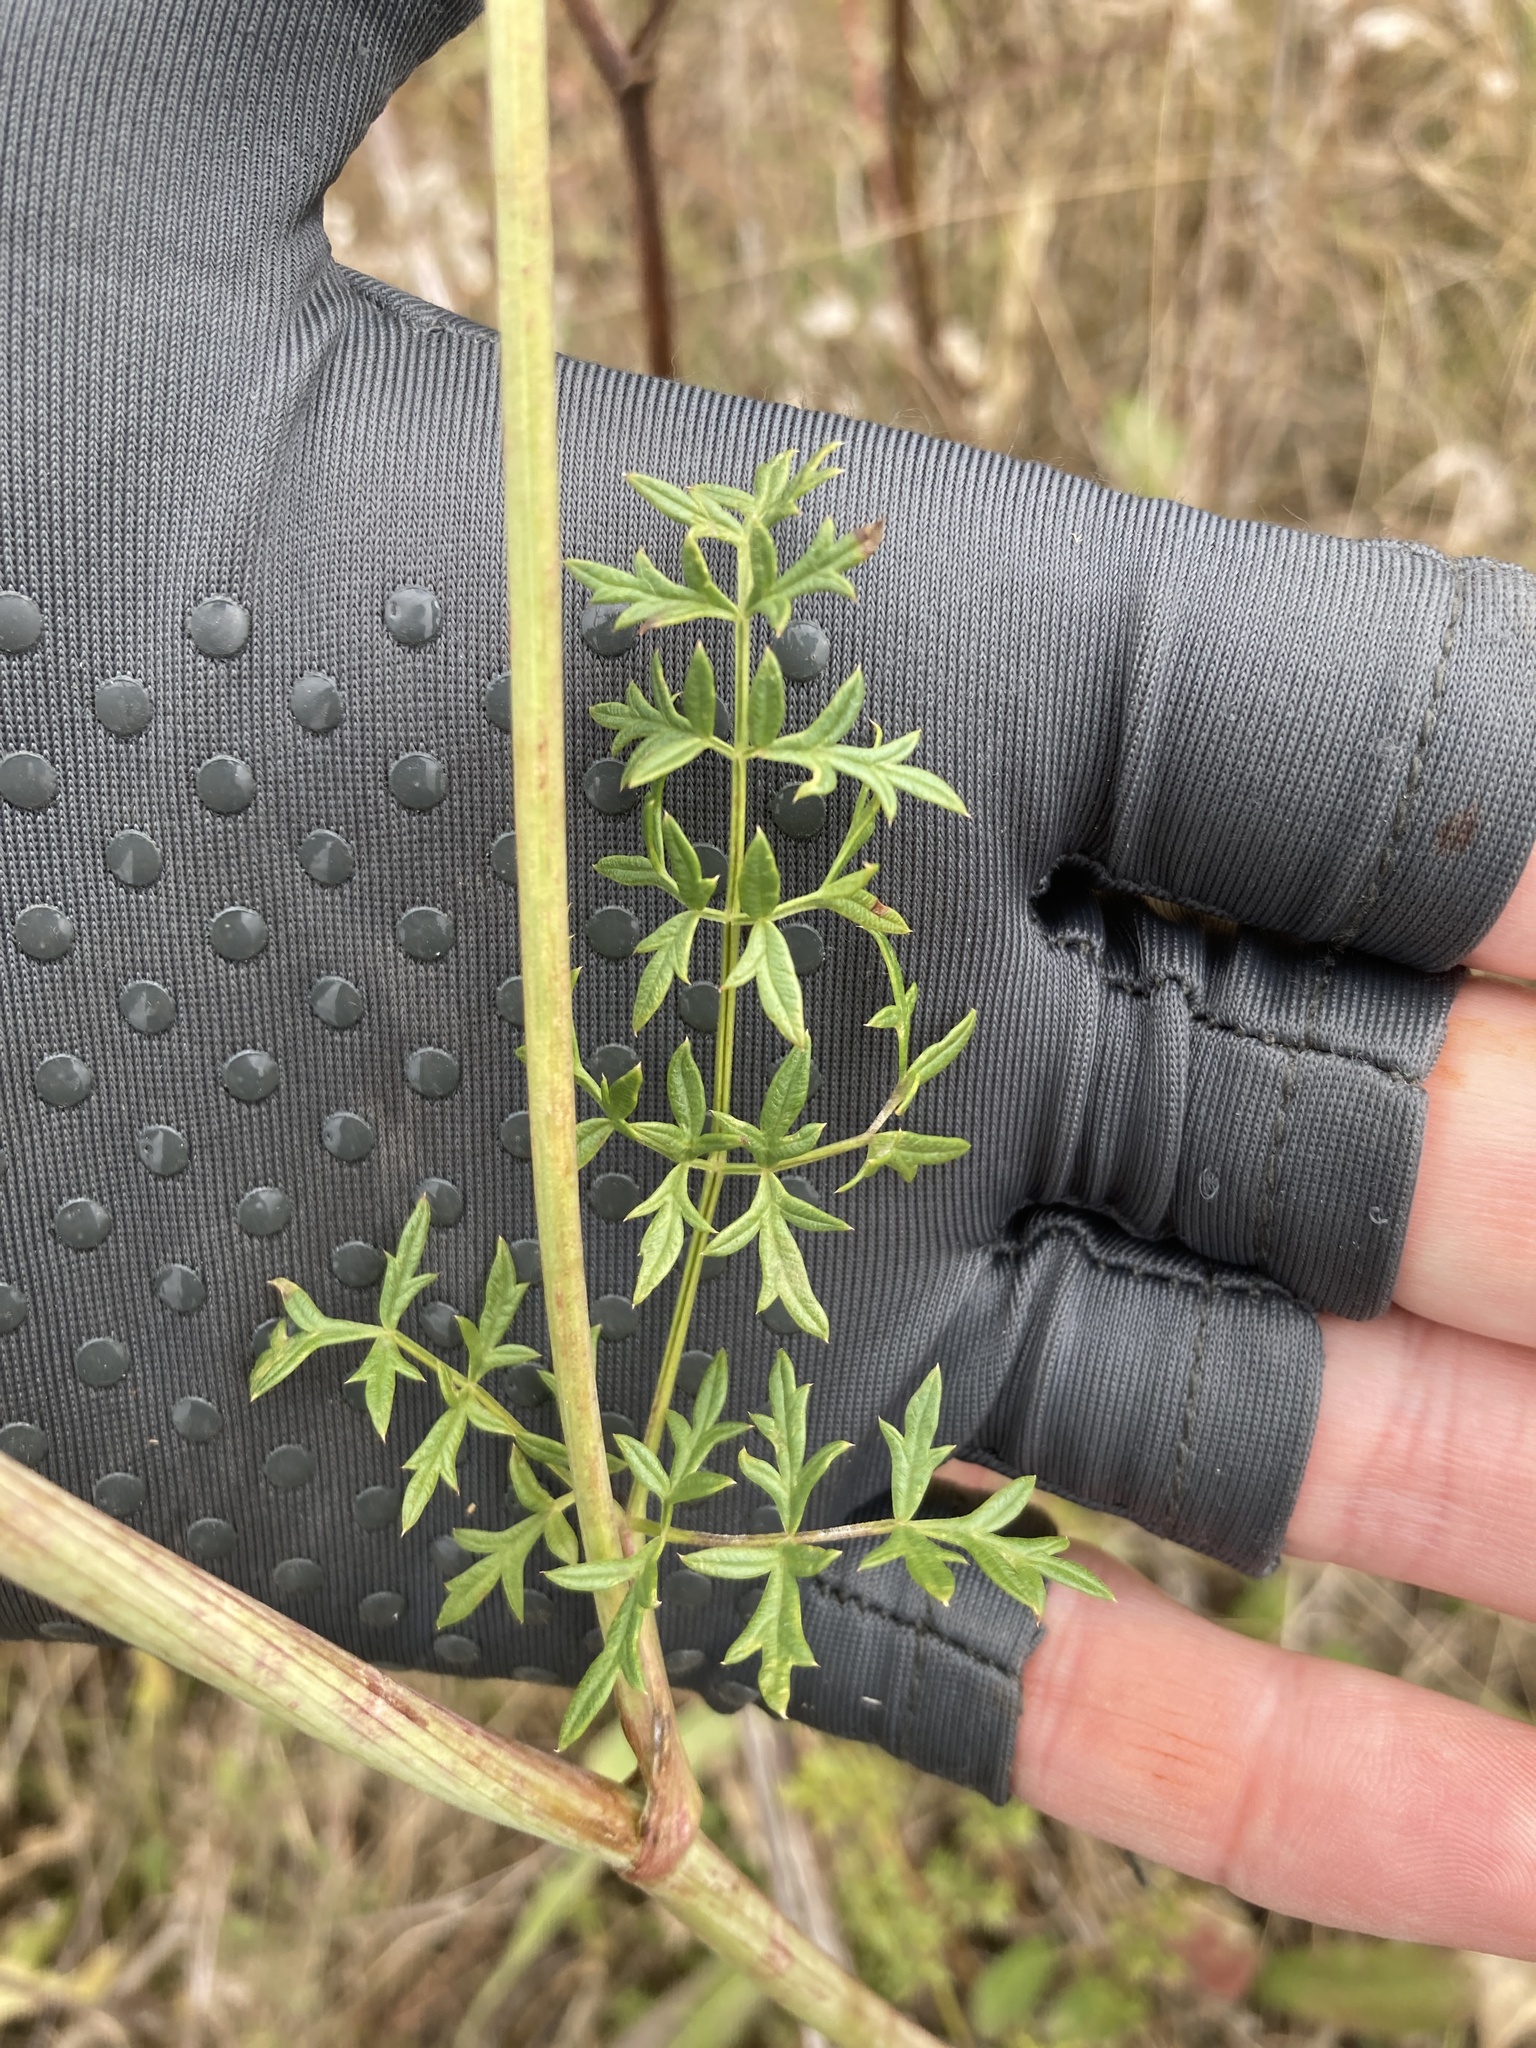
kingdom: Plantae
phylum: Tracheophyta
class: Magnoliopsida
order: Apiales
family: Apiaceae
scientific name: Apiaceae
